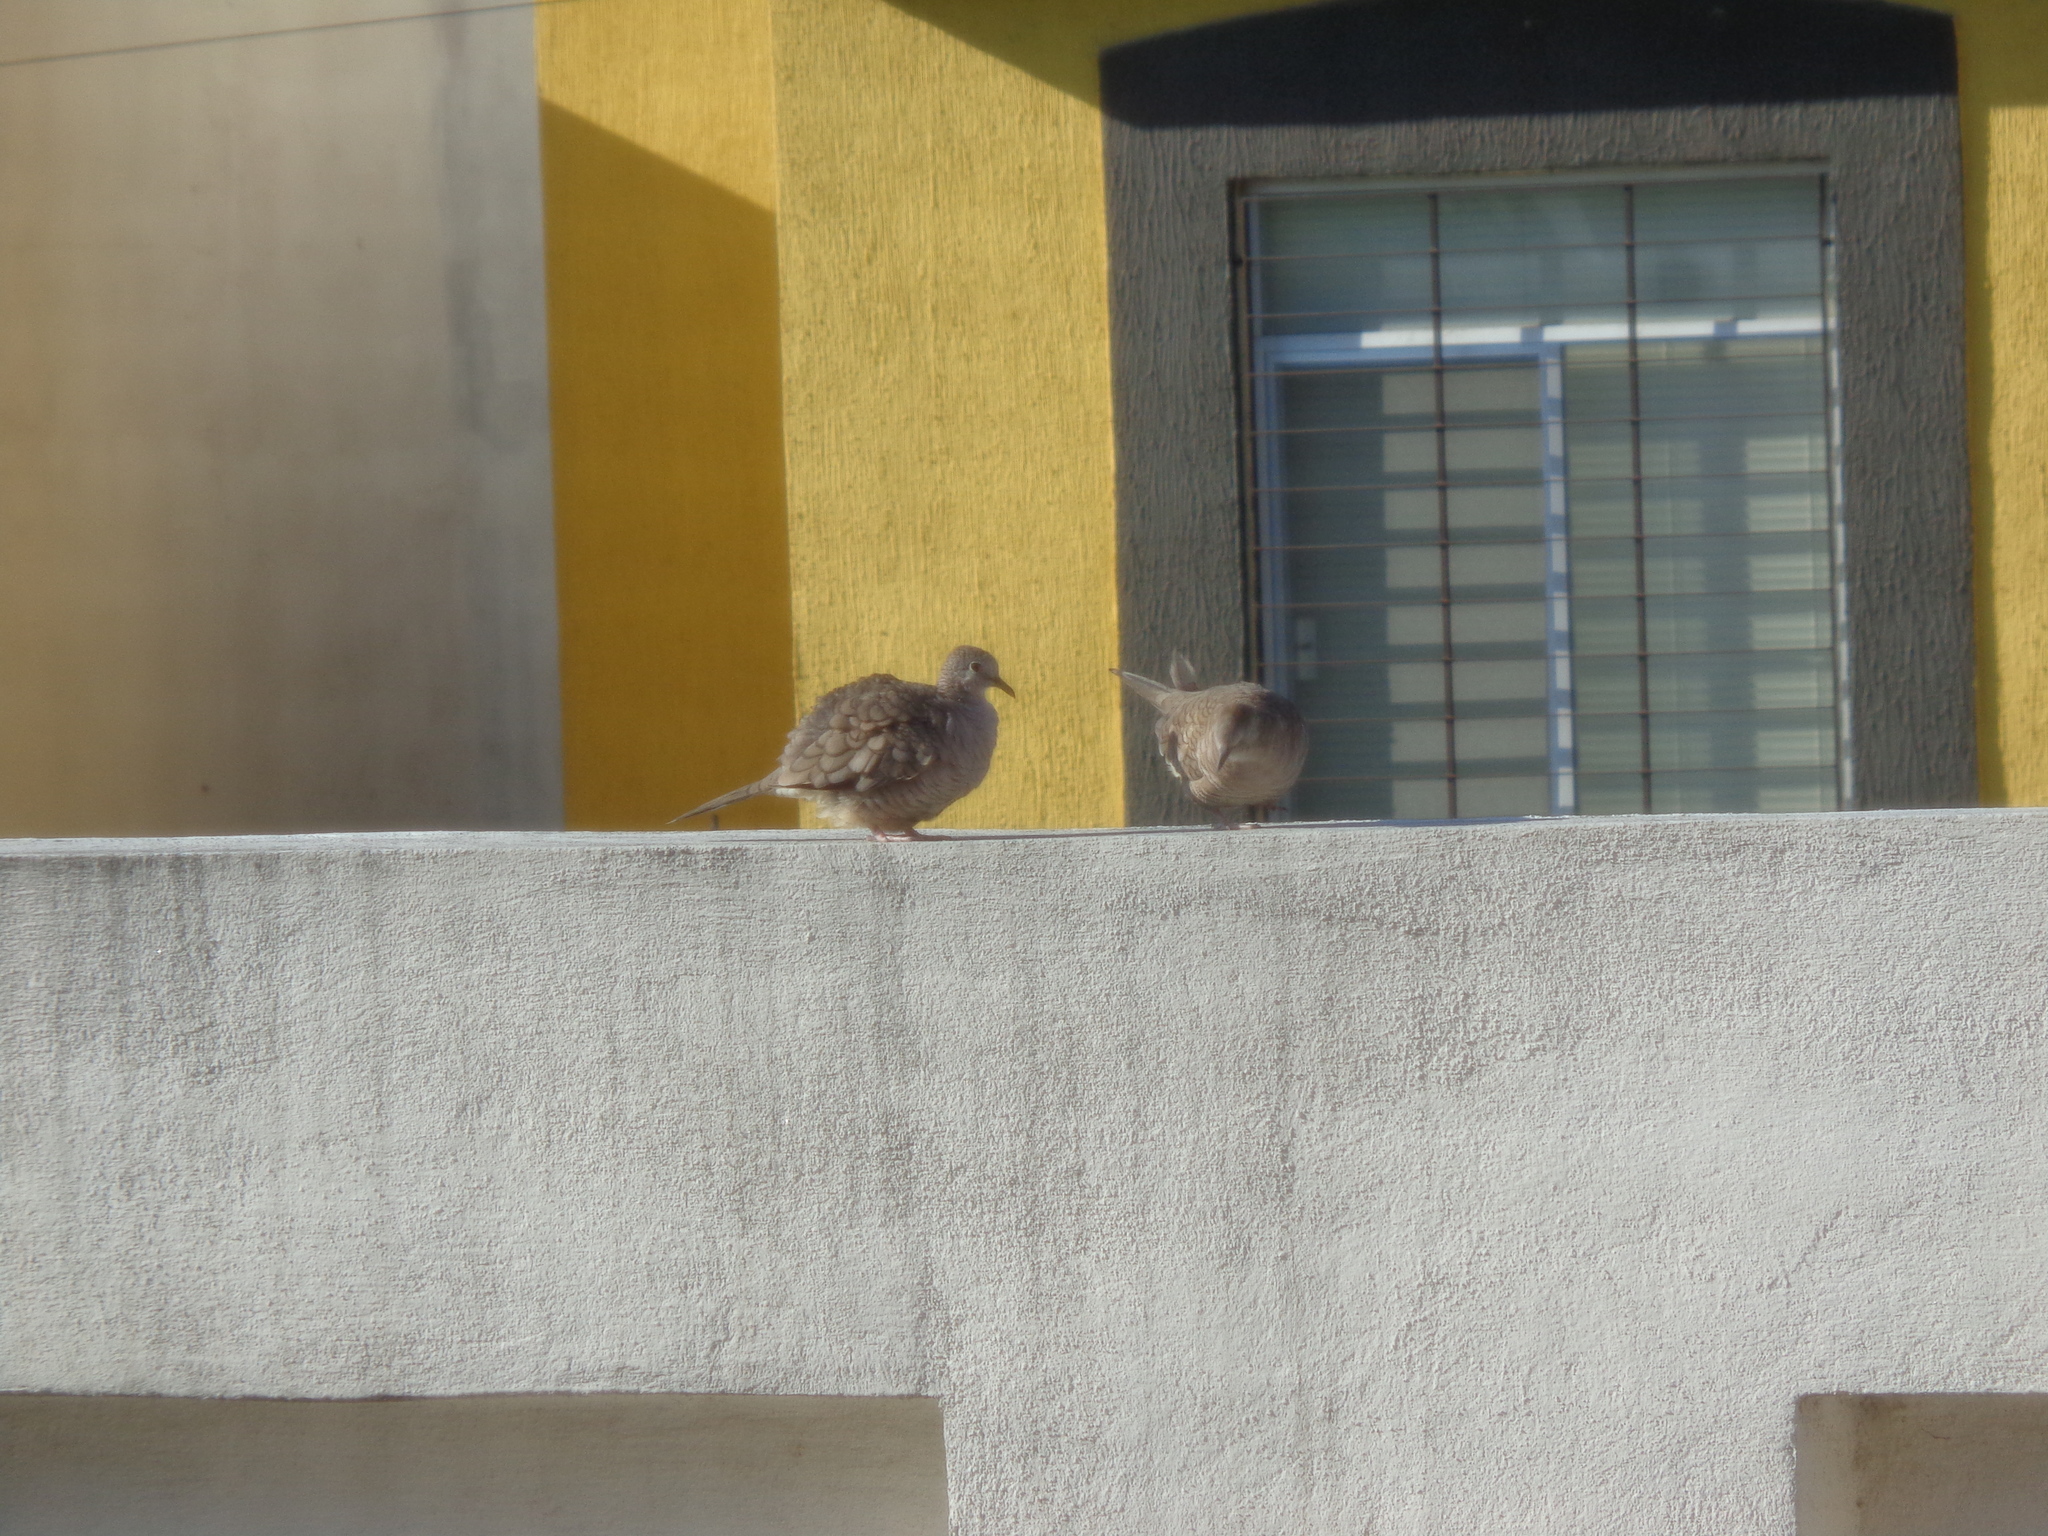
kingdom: Animalia
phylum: Chordata
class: Aves
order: Columbiformes
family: Columbidae
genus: Columbina
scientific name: Columbina inca
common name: Inca dove
